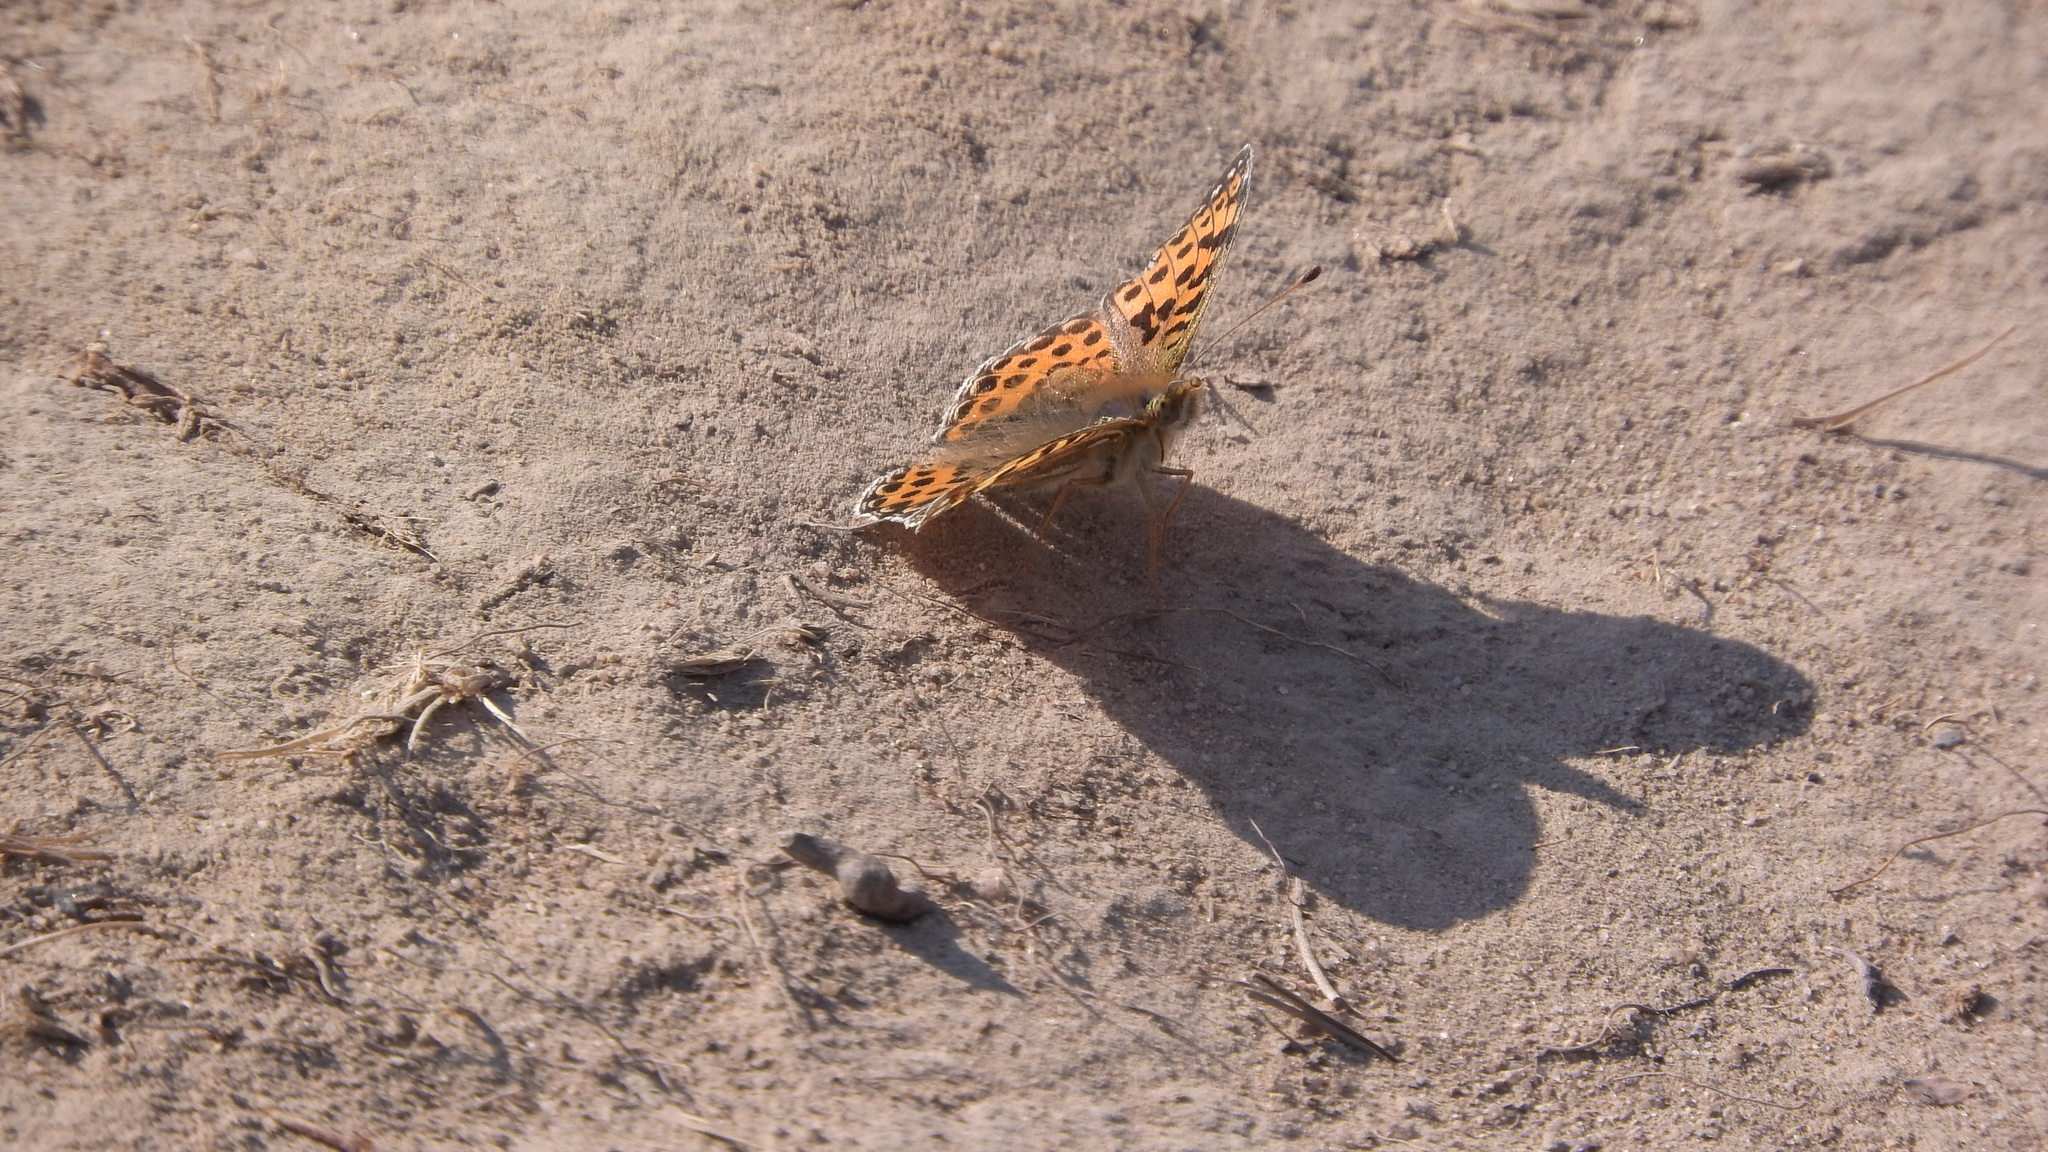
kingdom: Animalia
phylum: Arthropoda
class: Insecta
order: Lepidoptera
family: Nymphalidae
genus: Issoria
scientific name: Issoria lathonia
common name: Queen of spain fritillary
